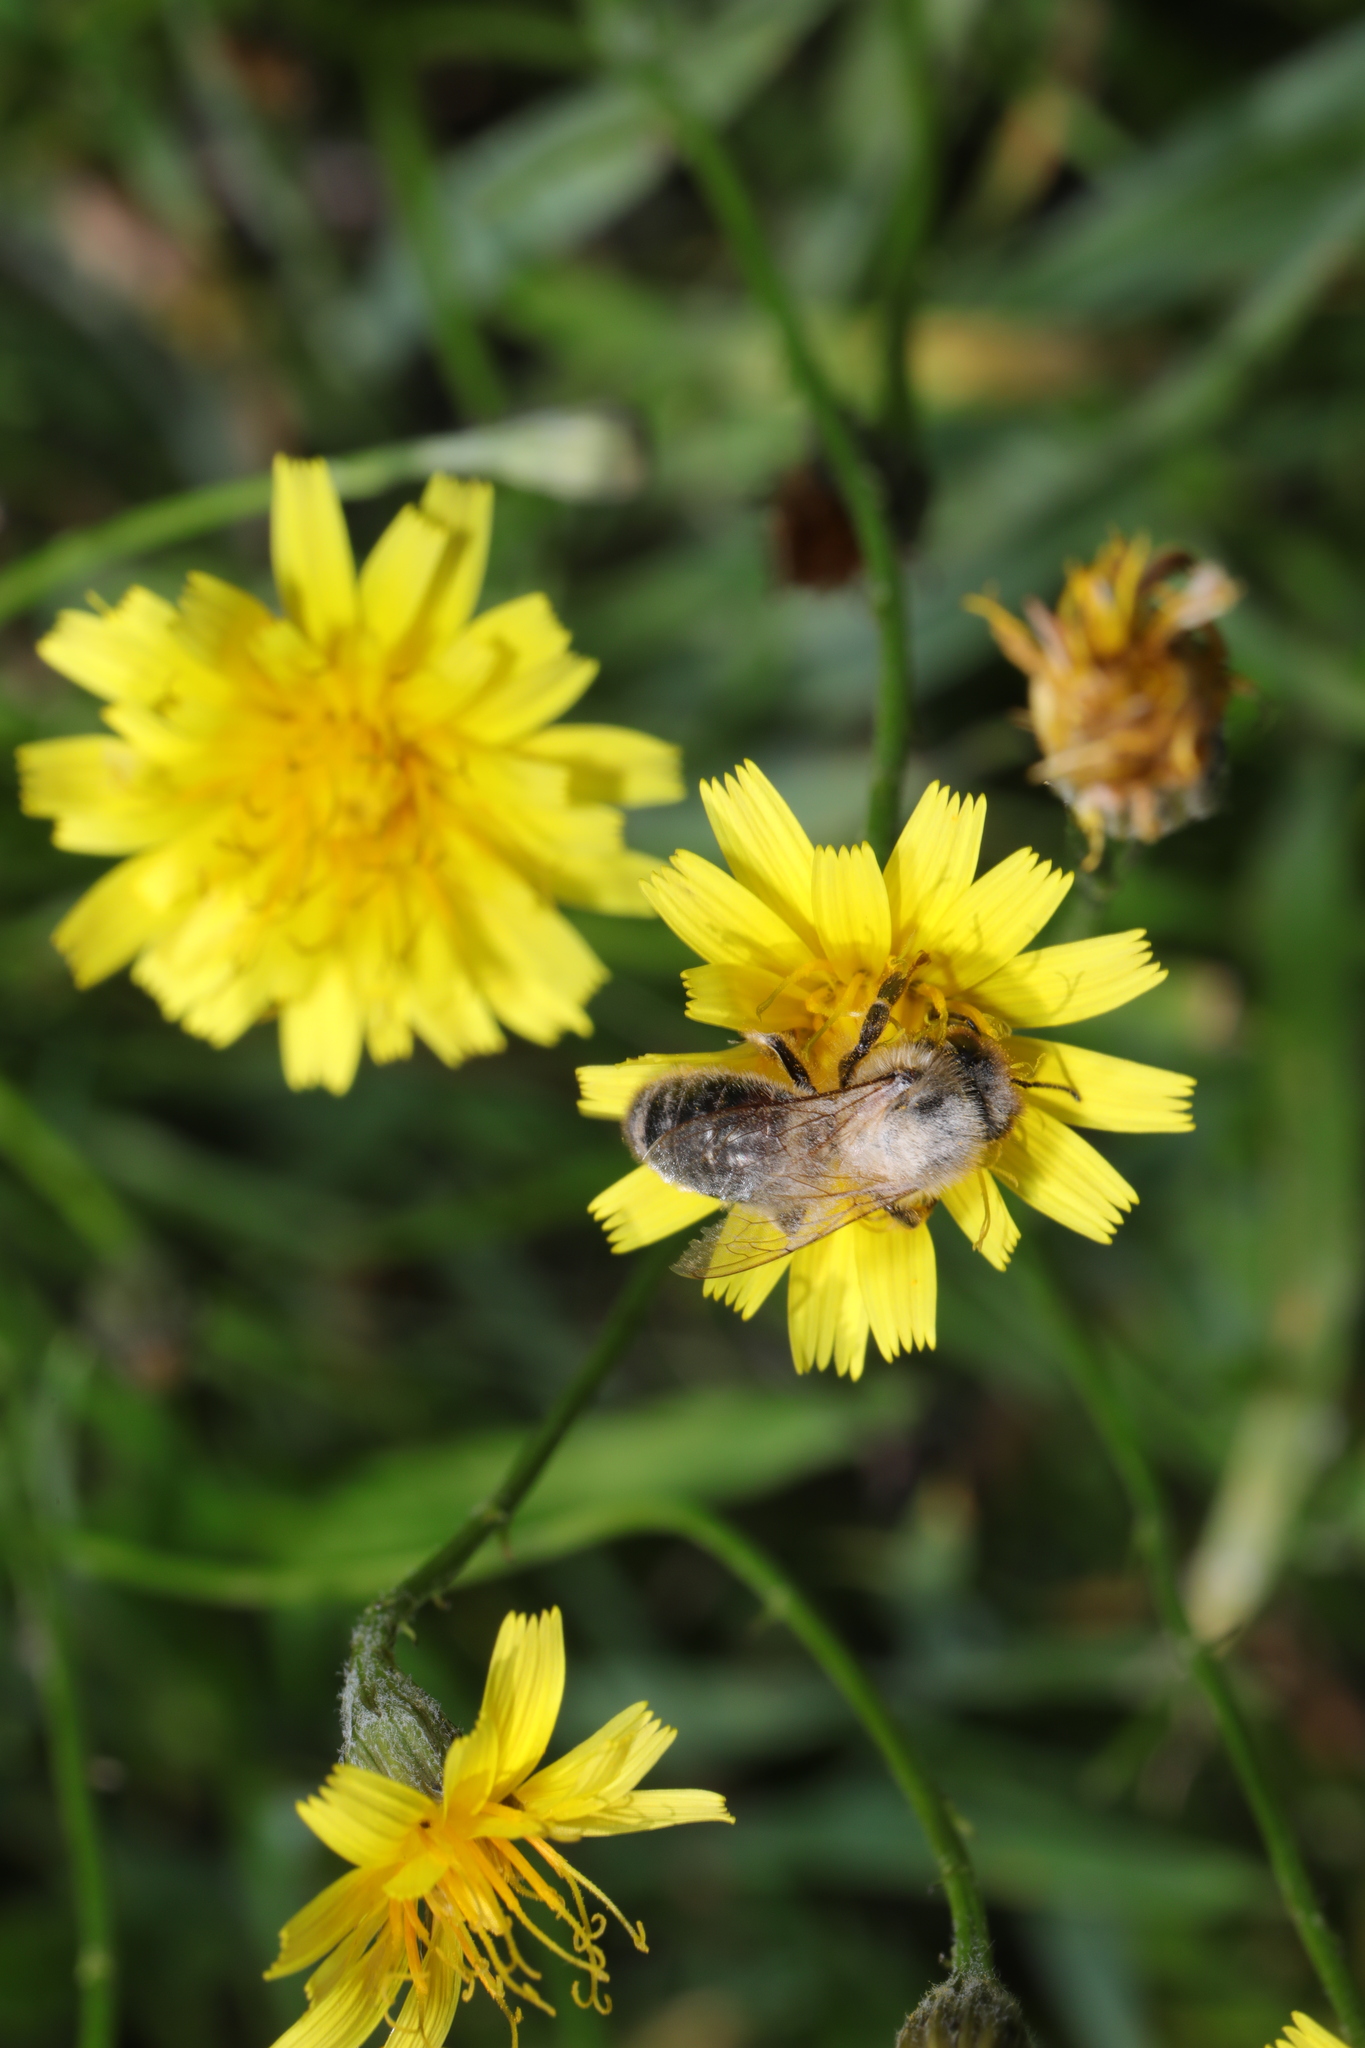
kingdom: Animalia
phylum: Arthropoda
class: Insecta
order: Hymenoptera
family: Apidae
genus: Apis
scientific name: Apis mellifera
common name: Honey bee
